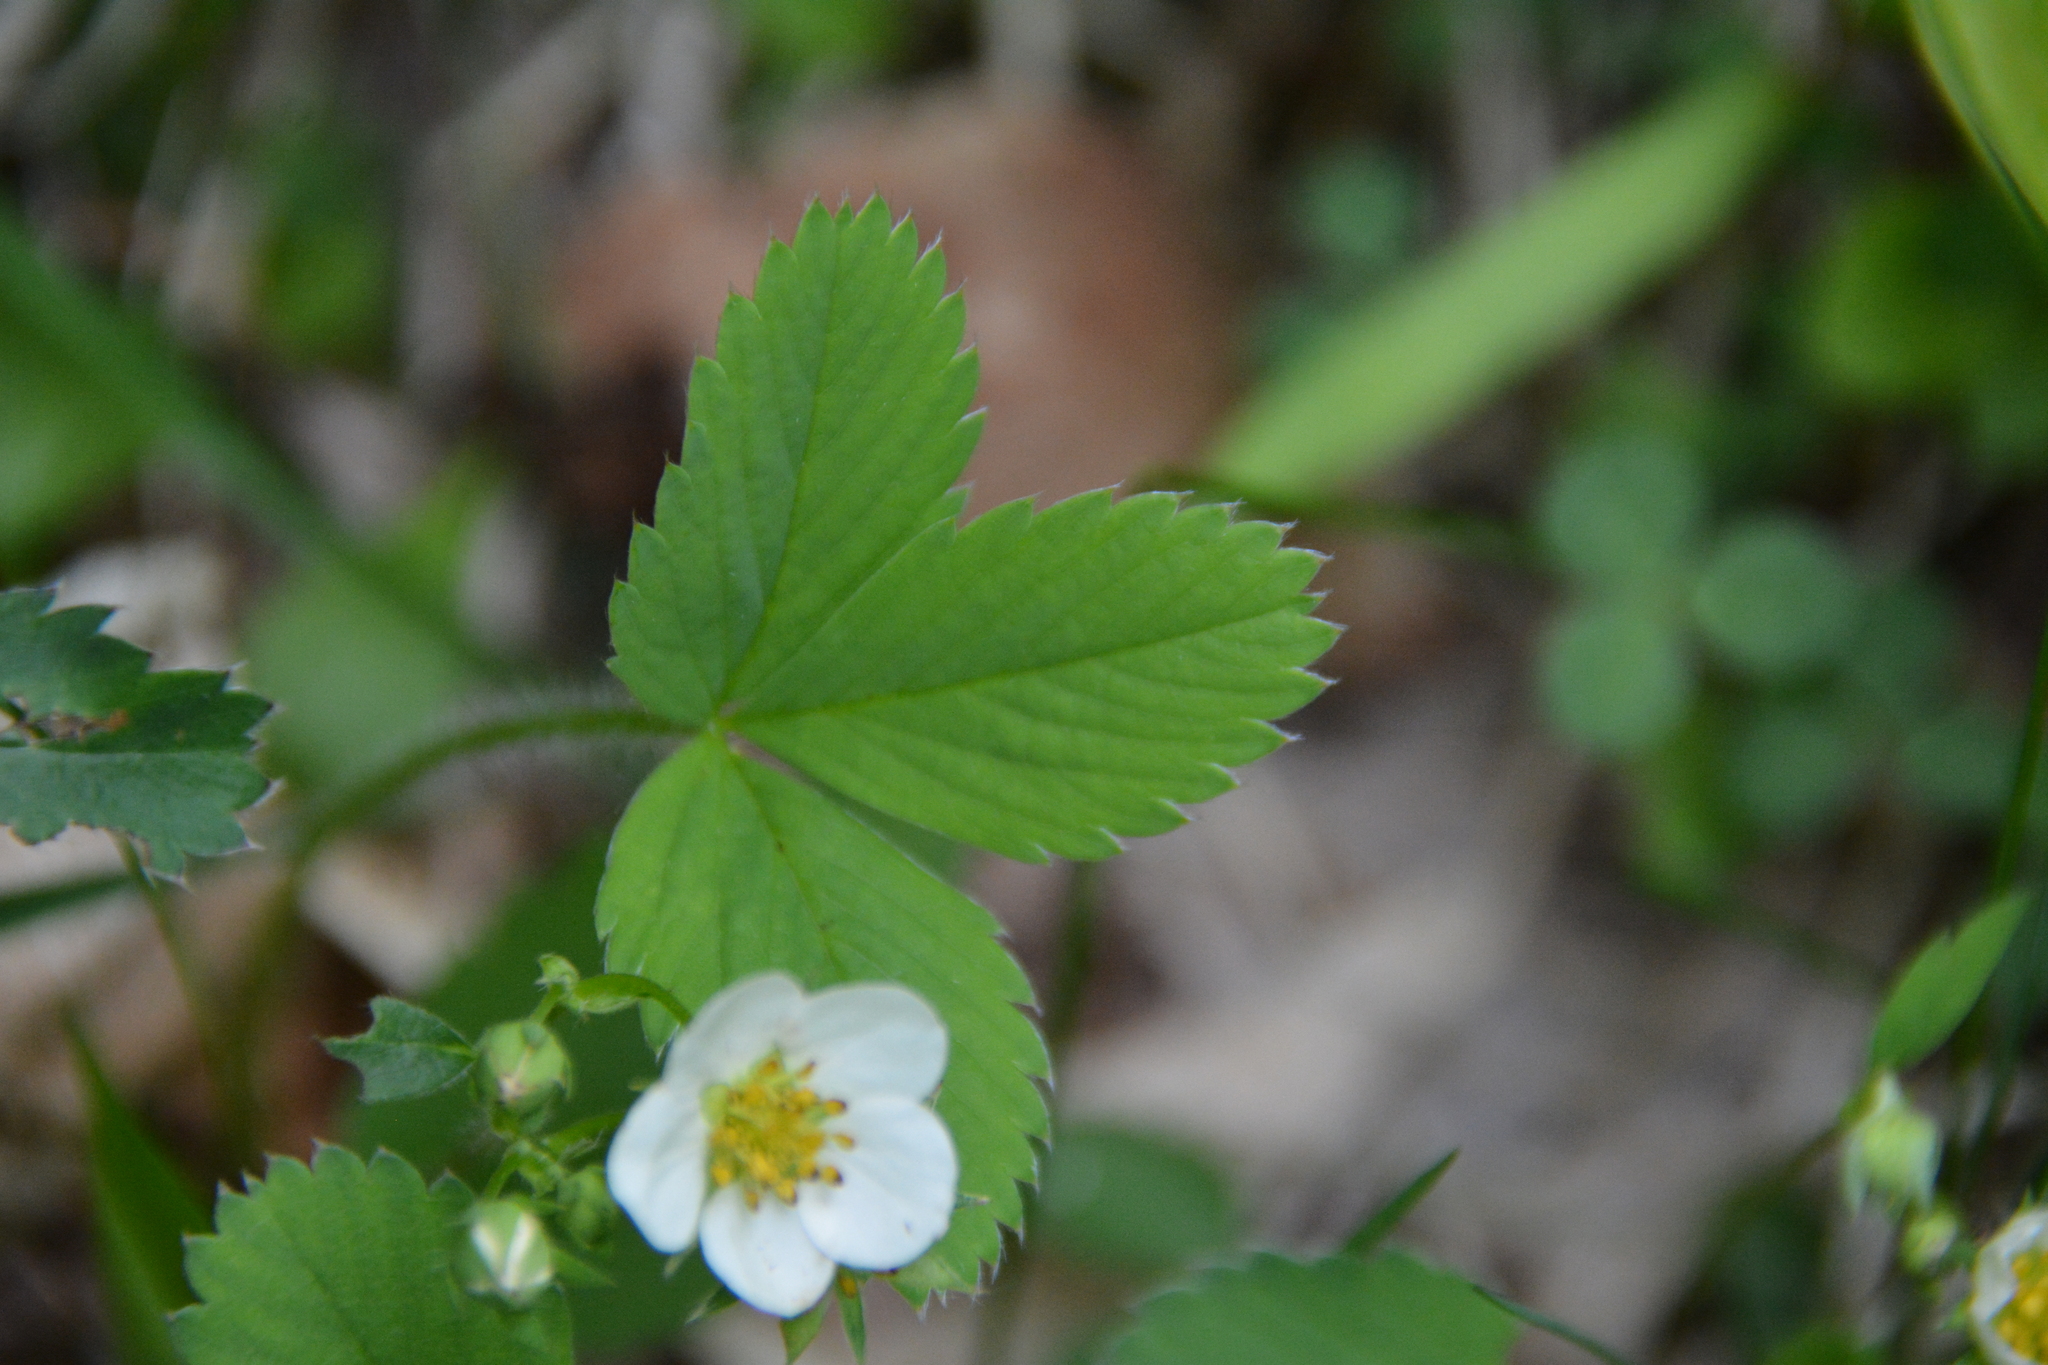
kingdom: Plantae
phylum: Tracheophyta
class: Magnoliopsida
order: Rosales
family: Rosaceae
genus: Fragaria
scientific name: Fragaria virginiana
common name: Thickleaved wild strawberry
